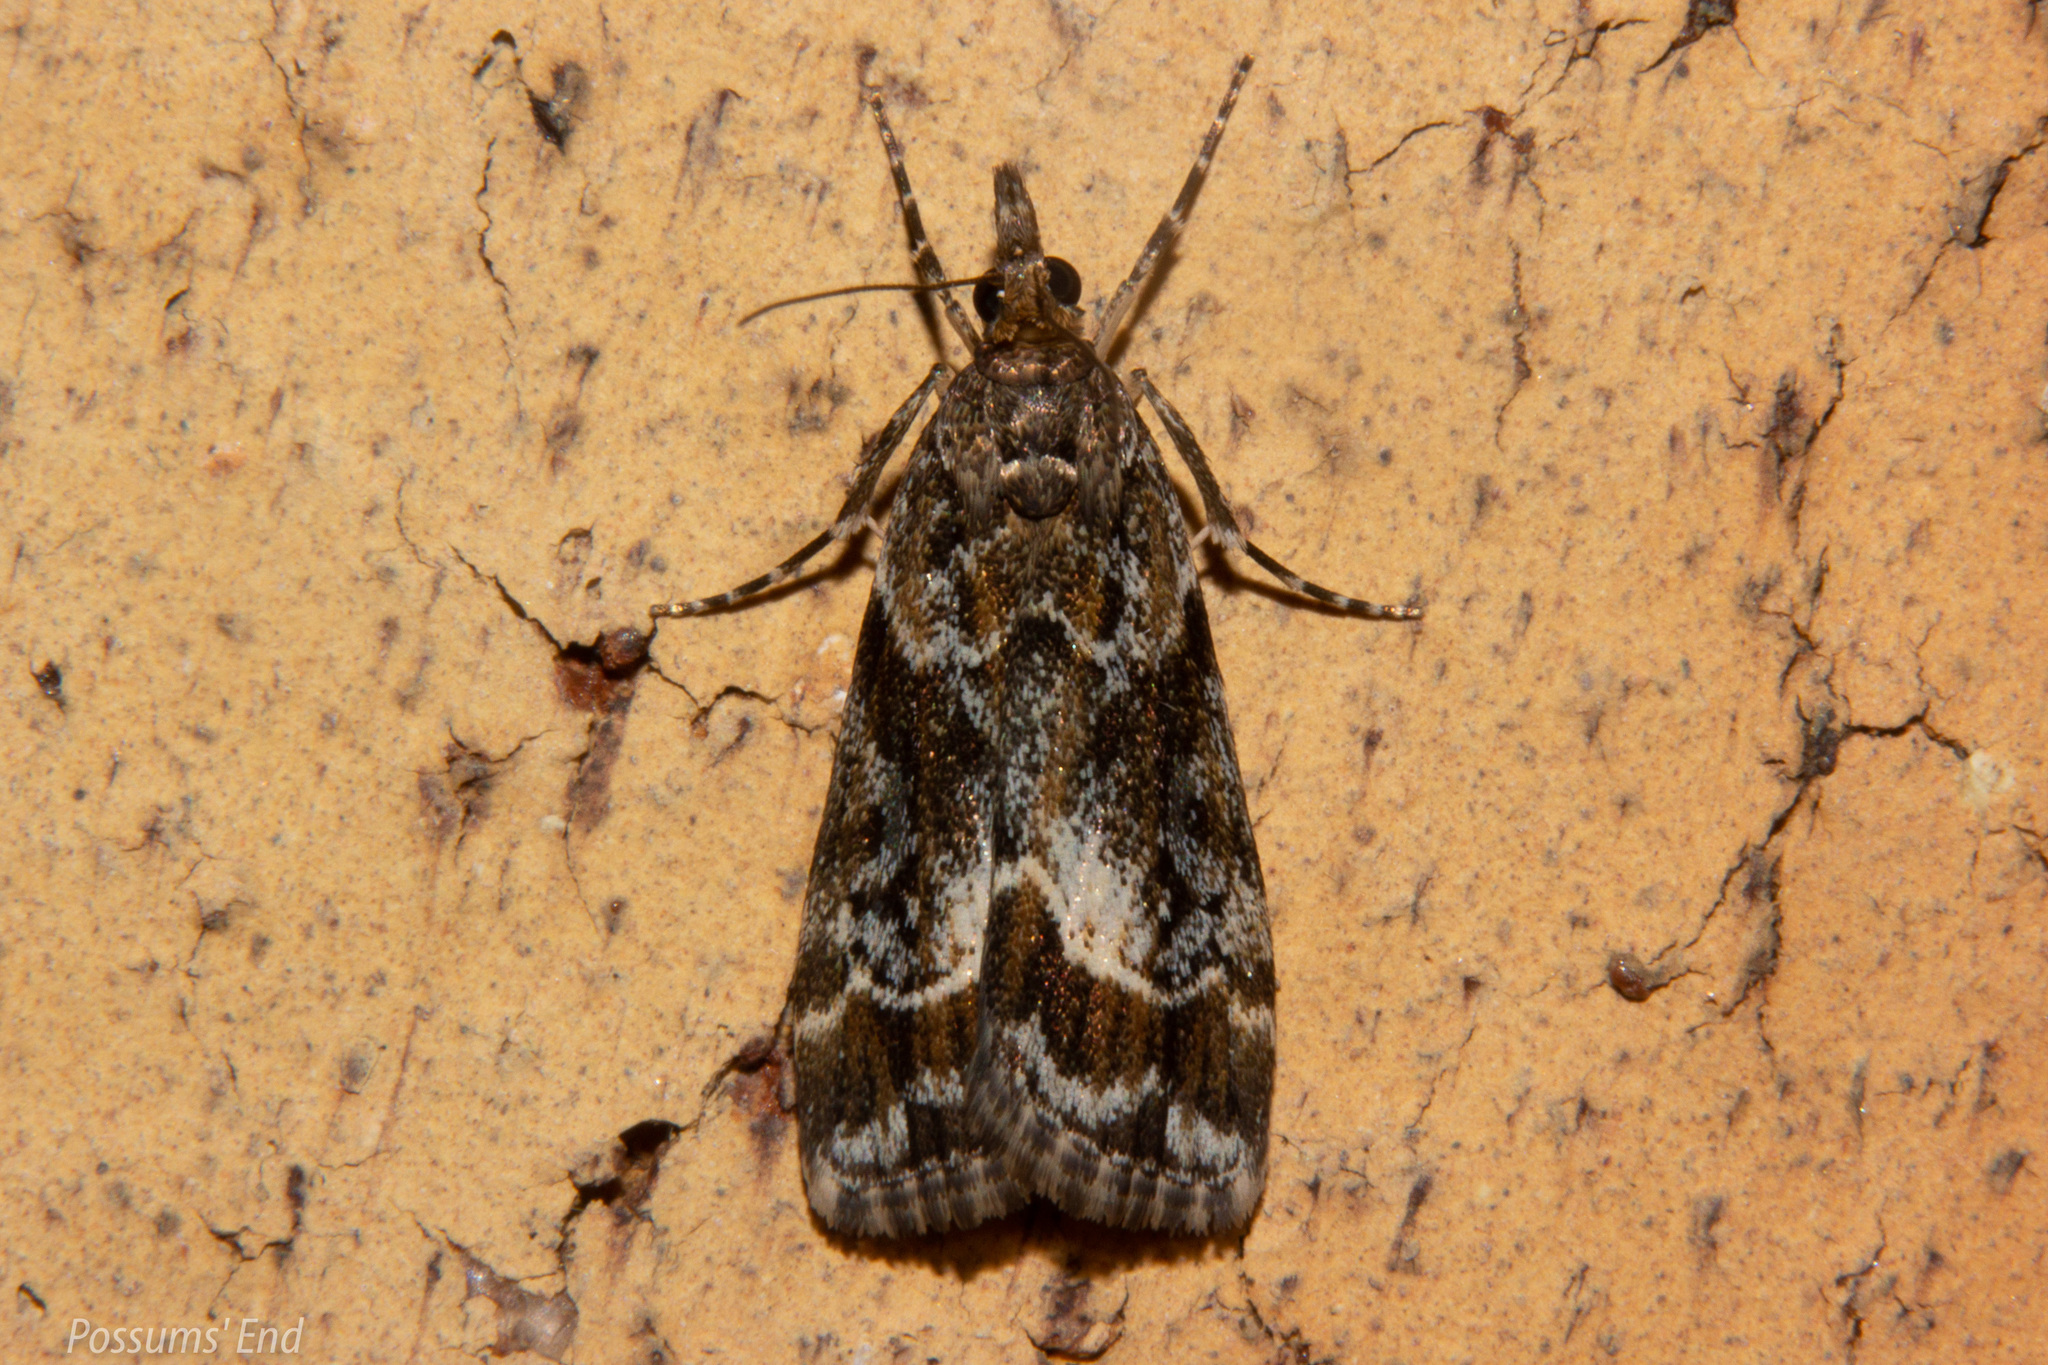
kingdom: Animalia
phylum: Arthropoda
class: Insecta
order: Lepidoptera
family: Crambidae
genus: Eudonia
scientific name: Eudonia legnota
